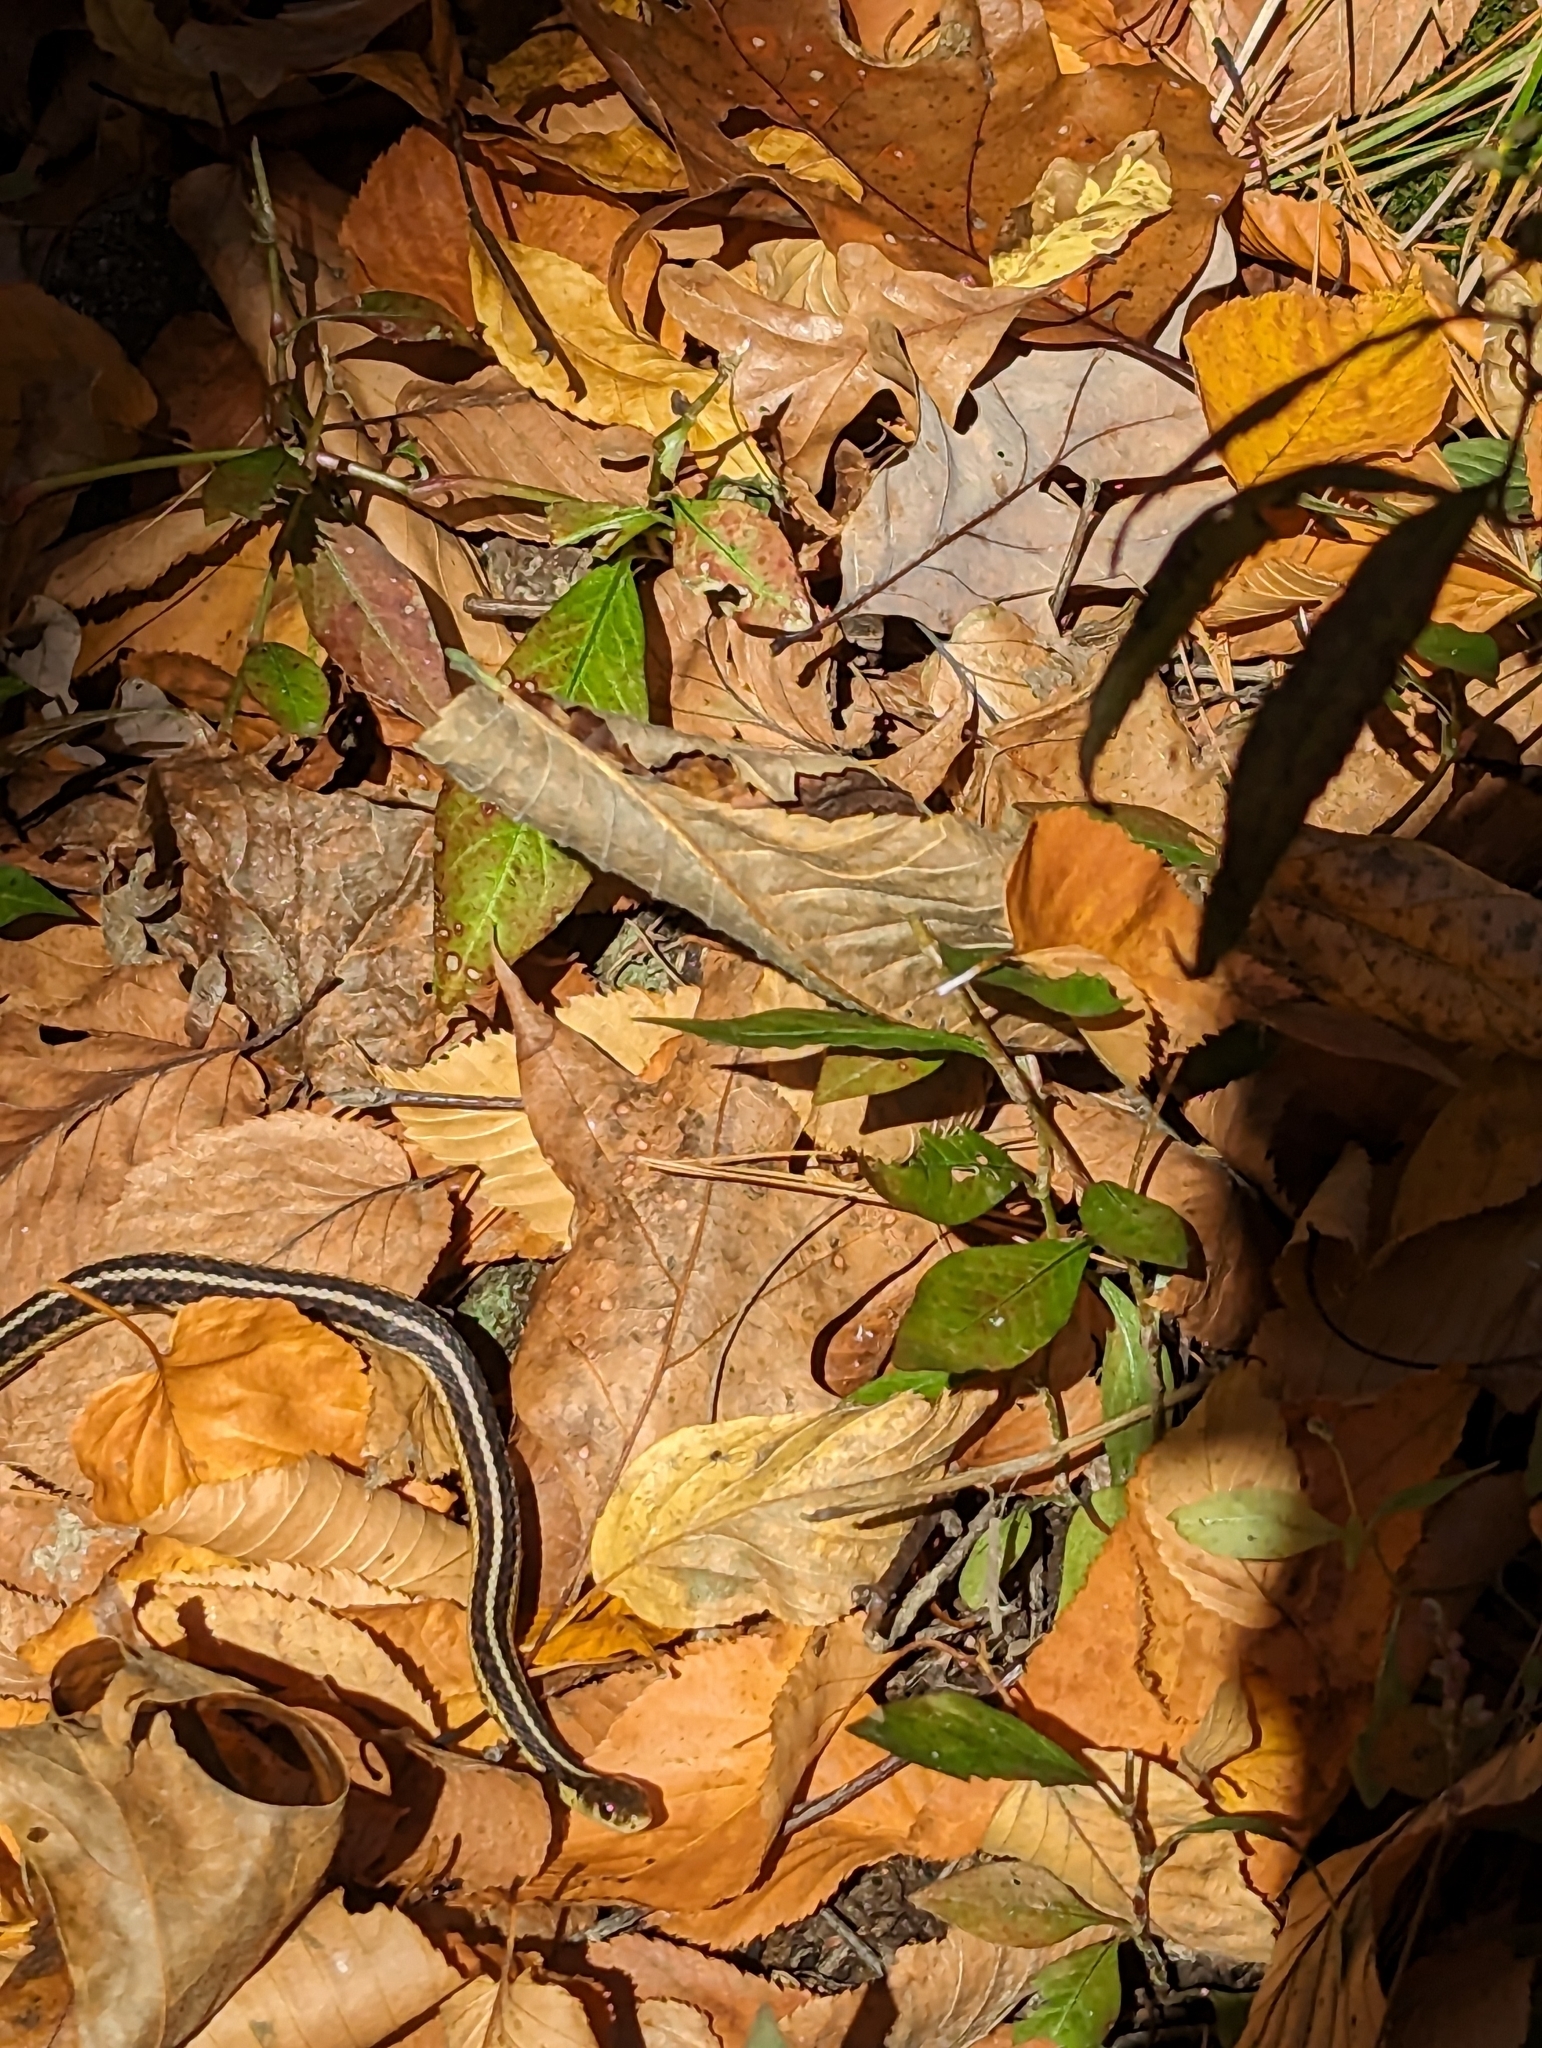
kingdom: Animalia
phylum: Chordata
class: Squamata
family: Colubridae
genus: Thamnophis
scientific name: Thamnophis sirtalis
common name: Common garter snake
